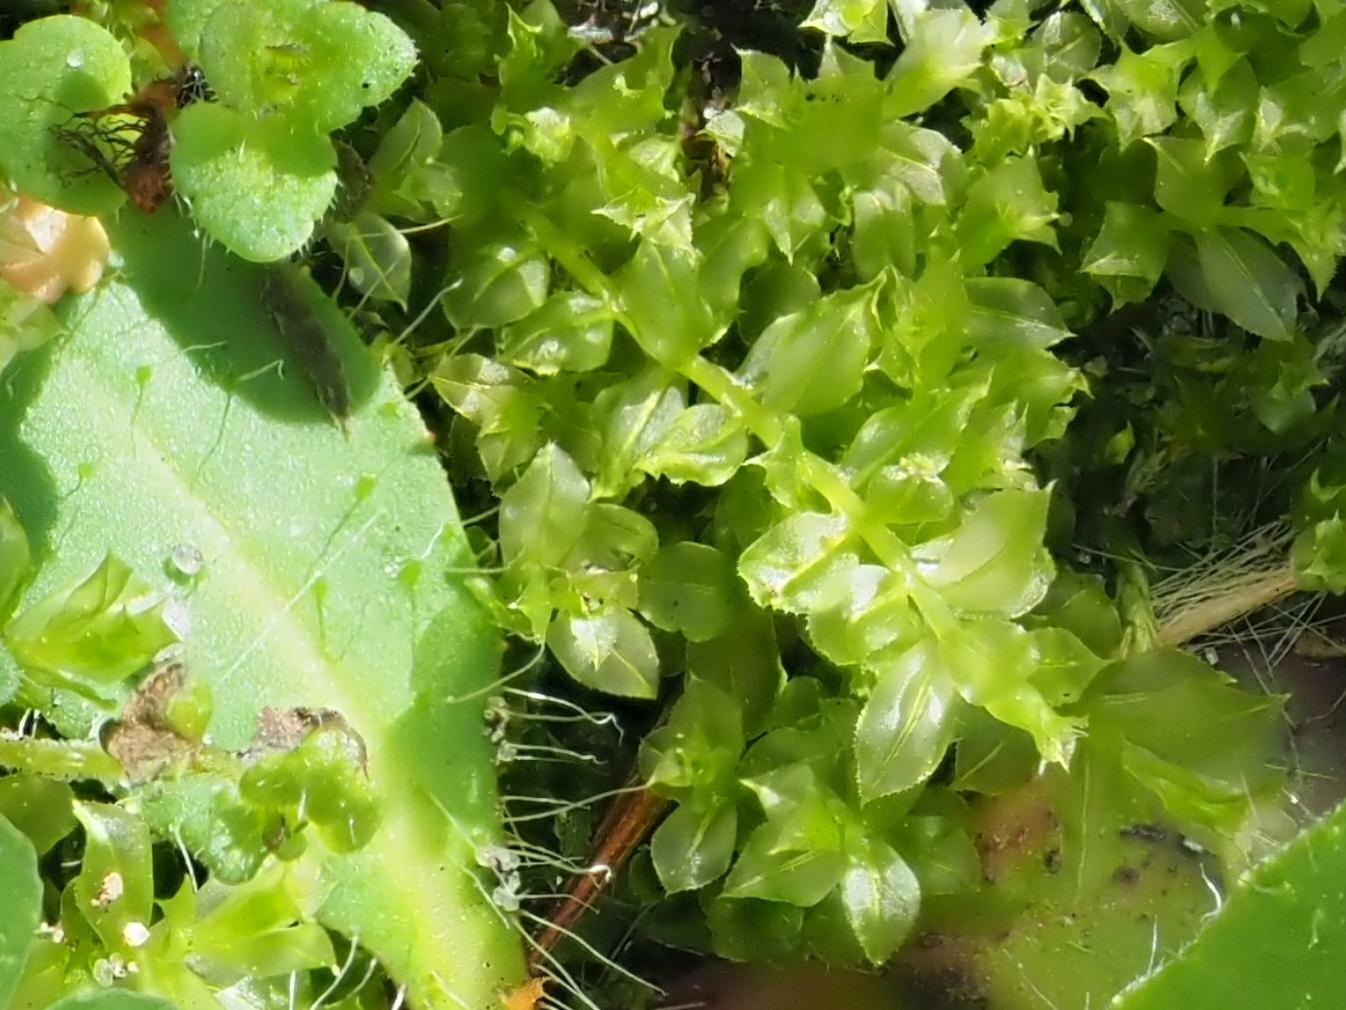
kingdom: Plantae
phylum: Bryophyta
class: Bryopsida
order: Bryales
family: Mniaceae
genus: Plagiomnium
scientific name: Plagiomnium cuspidatum
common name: Woodsy leafy moss
